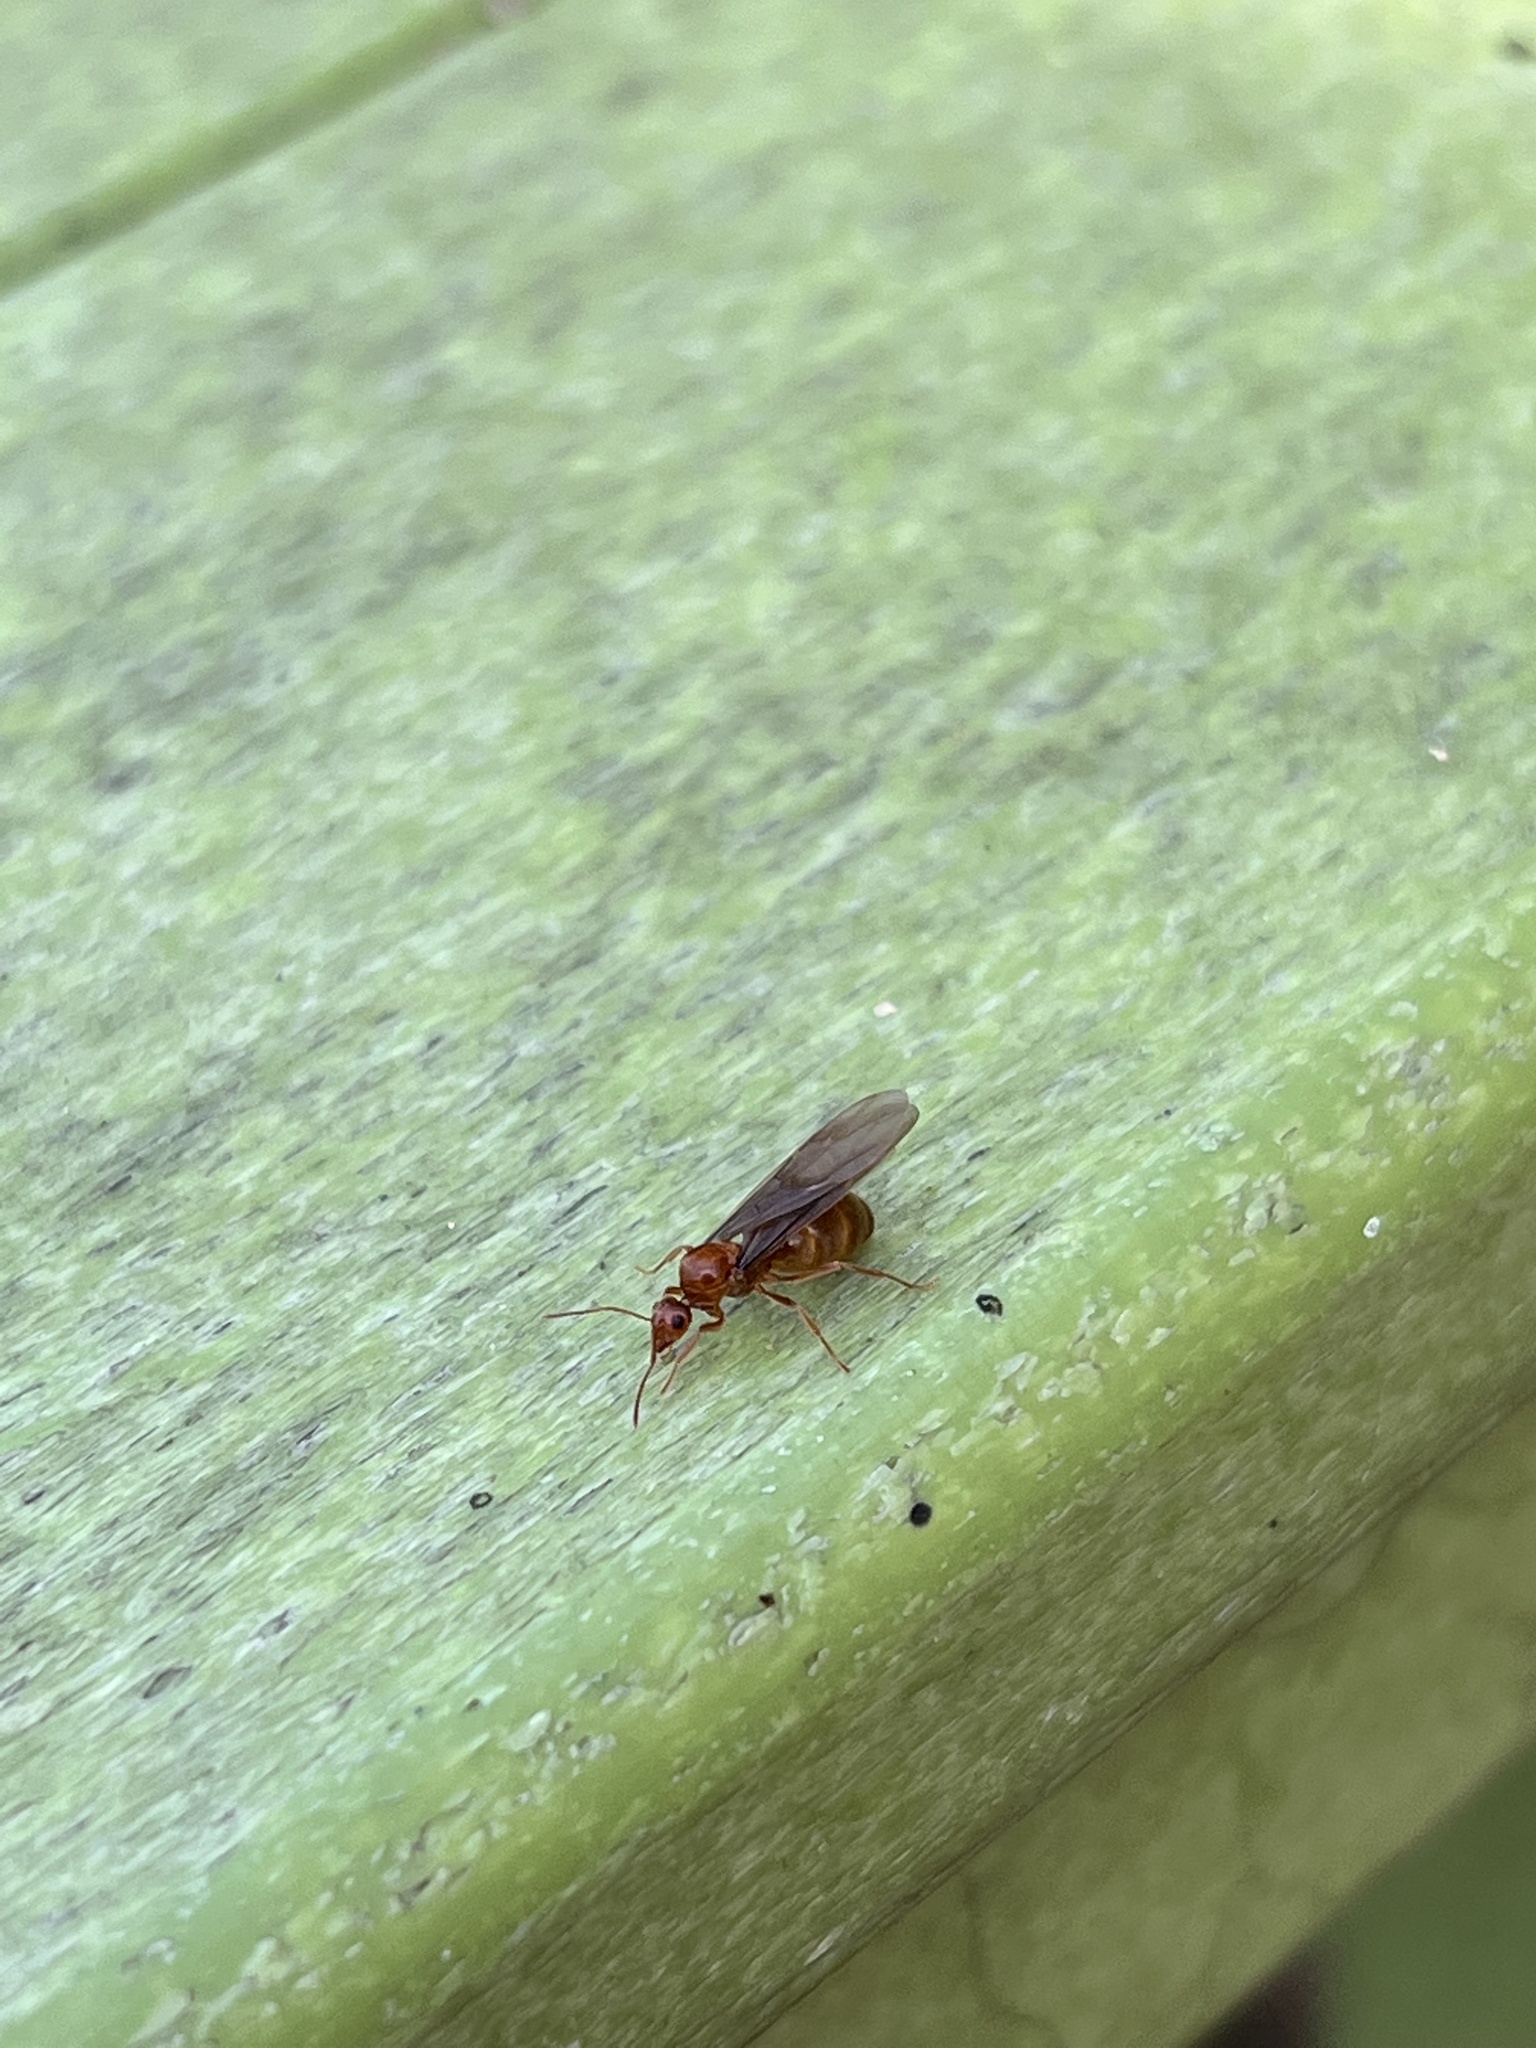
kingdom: Animalia
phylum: Arthropoda
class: Insecta
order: Hymenoptera
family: Formicidae
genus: Prenolepis
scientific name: Prenolepis imparis
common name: Small honey ant
